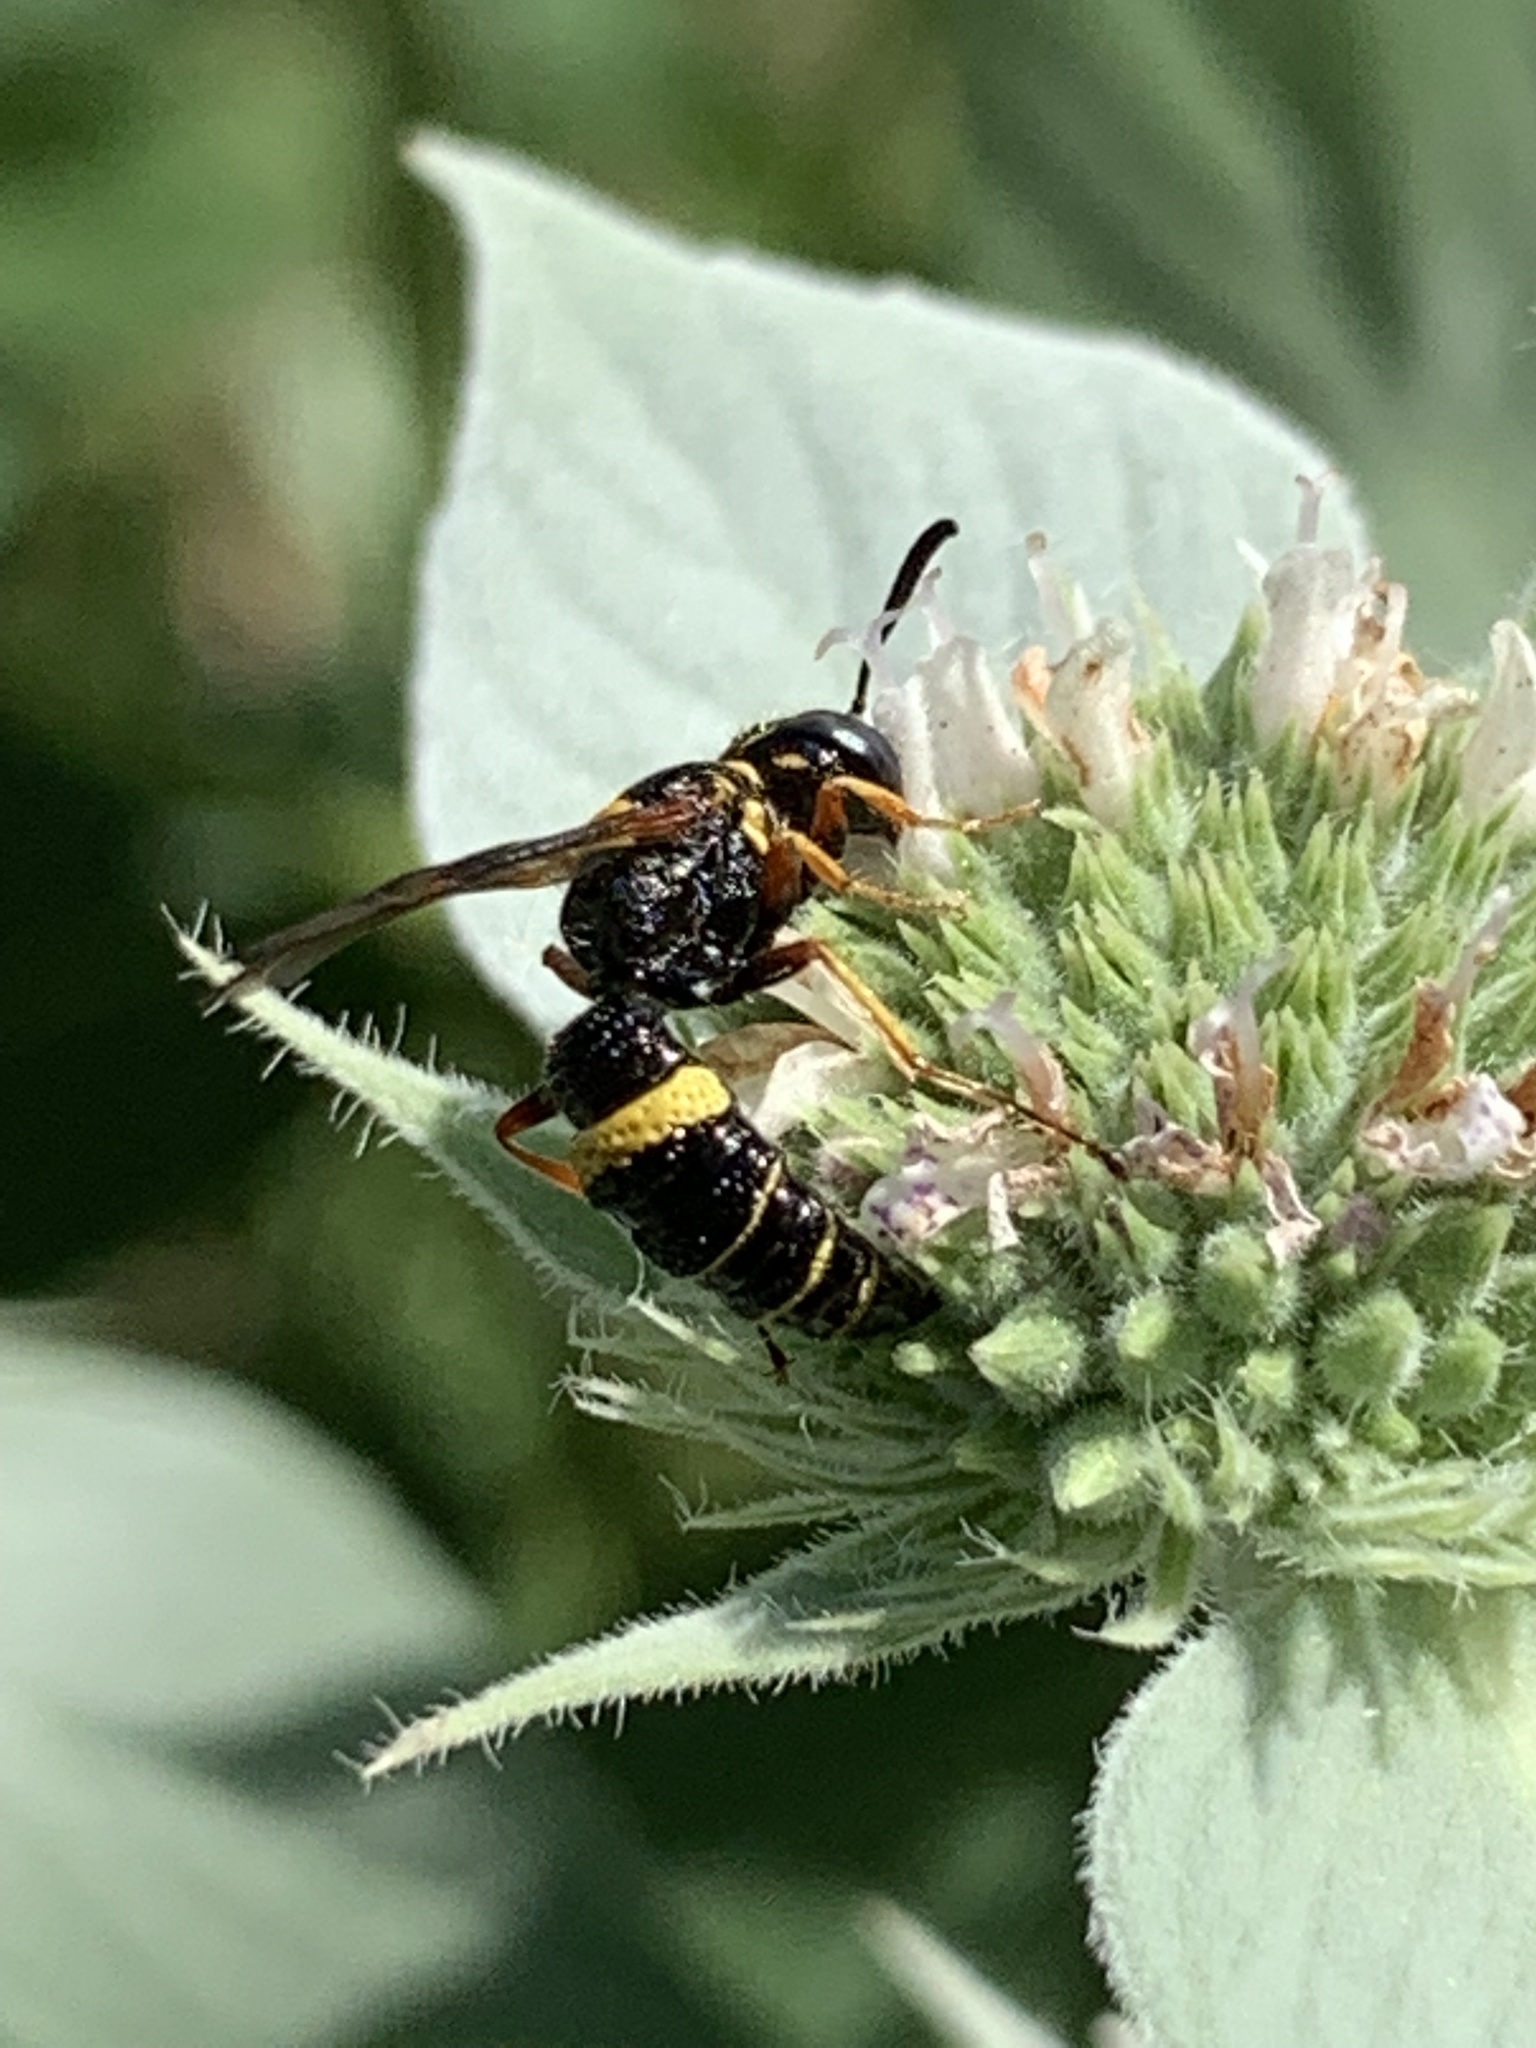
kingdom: Animalia
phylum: Arthropoda
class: Insecta
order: Hymenoptera
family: Crabronidae
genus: Philanthus
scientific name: Philanthus gibbosus
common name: Humped beewolf
